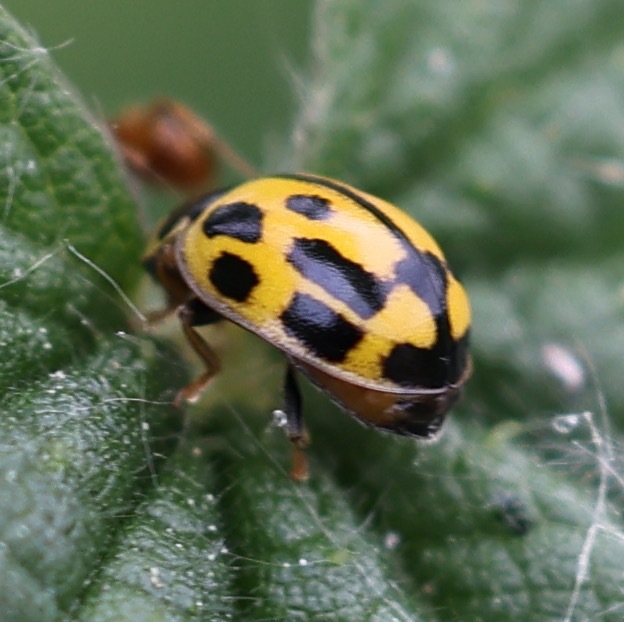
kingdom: Animalia
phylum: Arthropoda
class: Insecta
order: Coleoptera
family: Coccinellidae
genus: Propylaea
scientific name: Propylaea quatuordecimpunctata
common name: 14-spotted ladybird beetle
